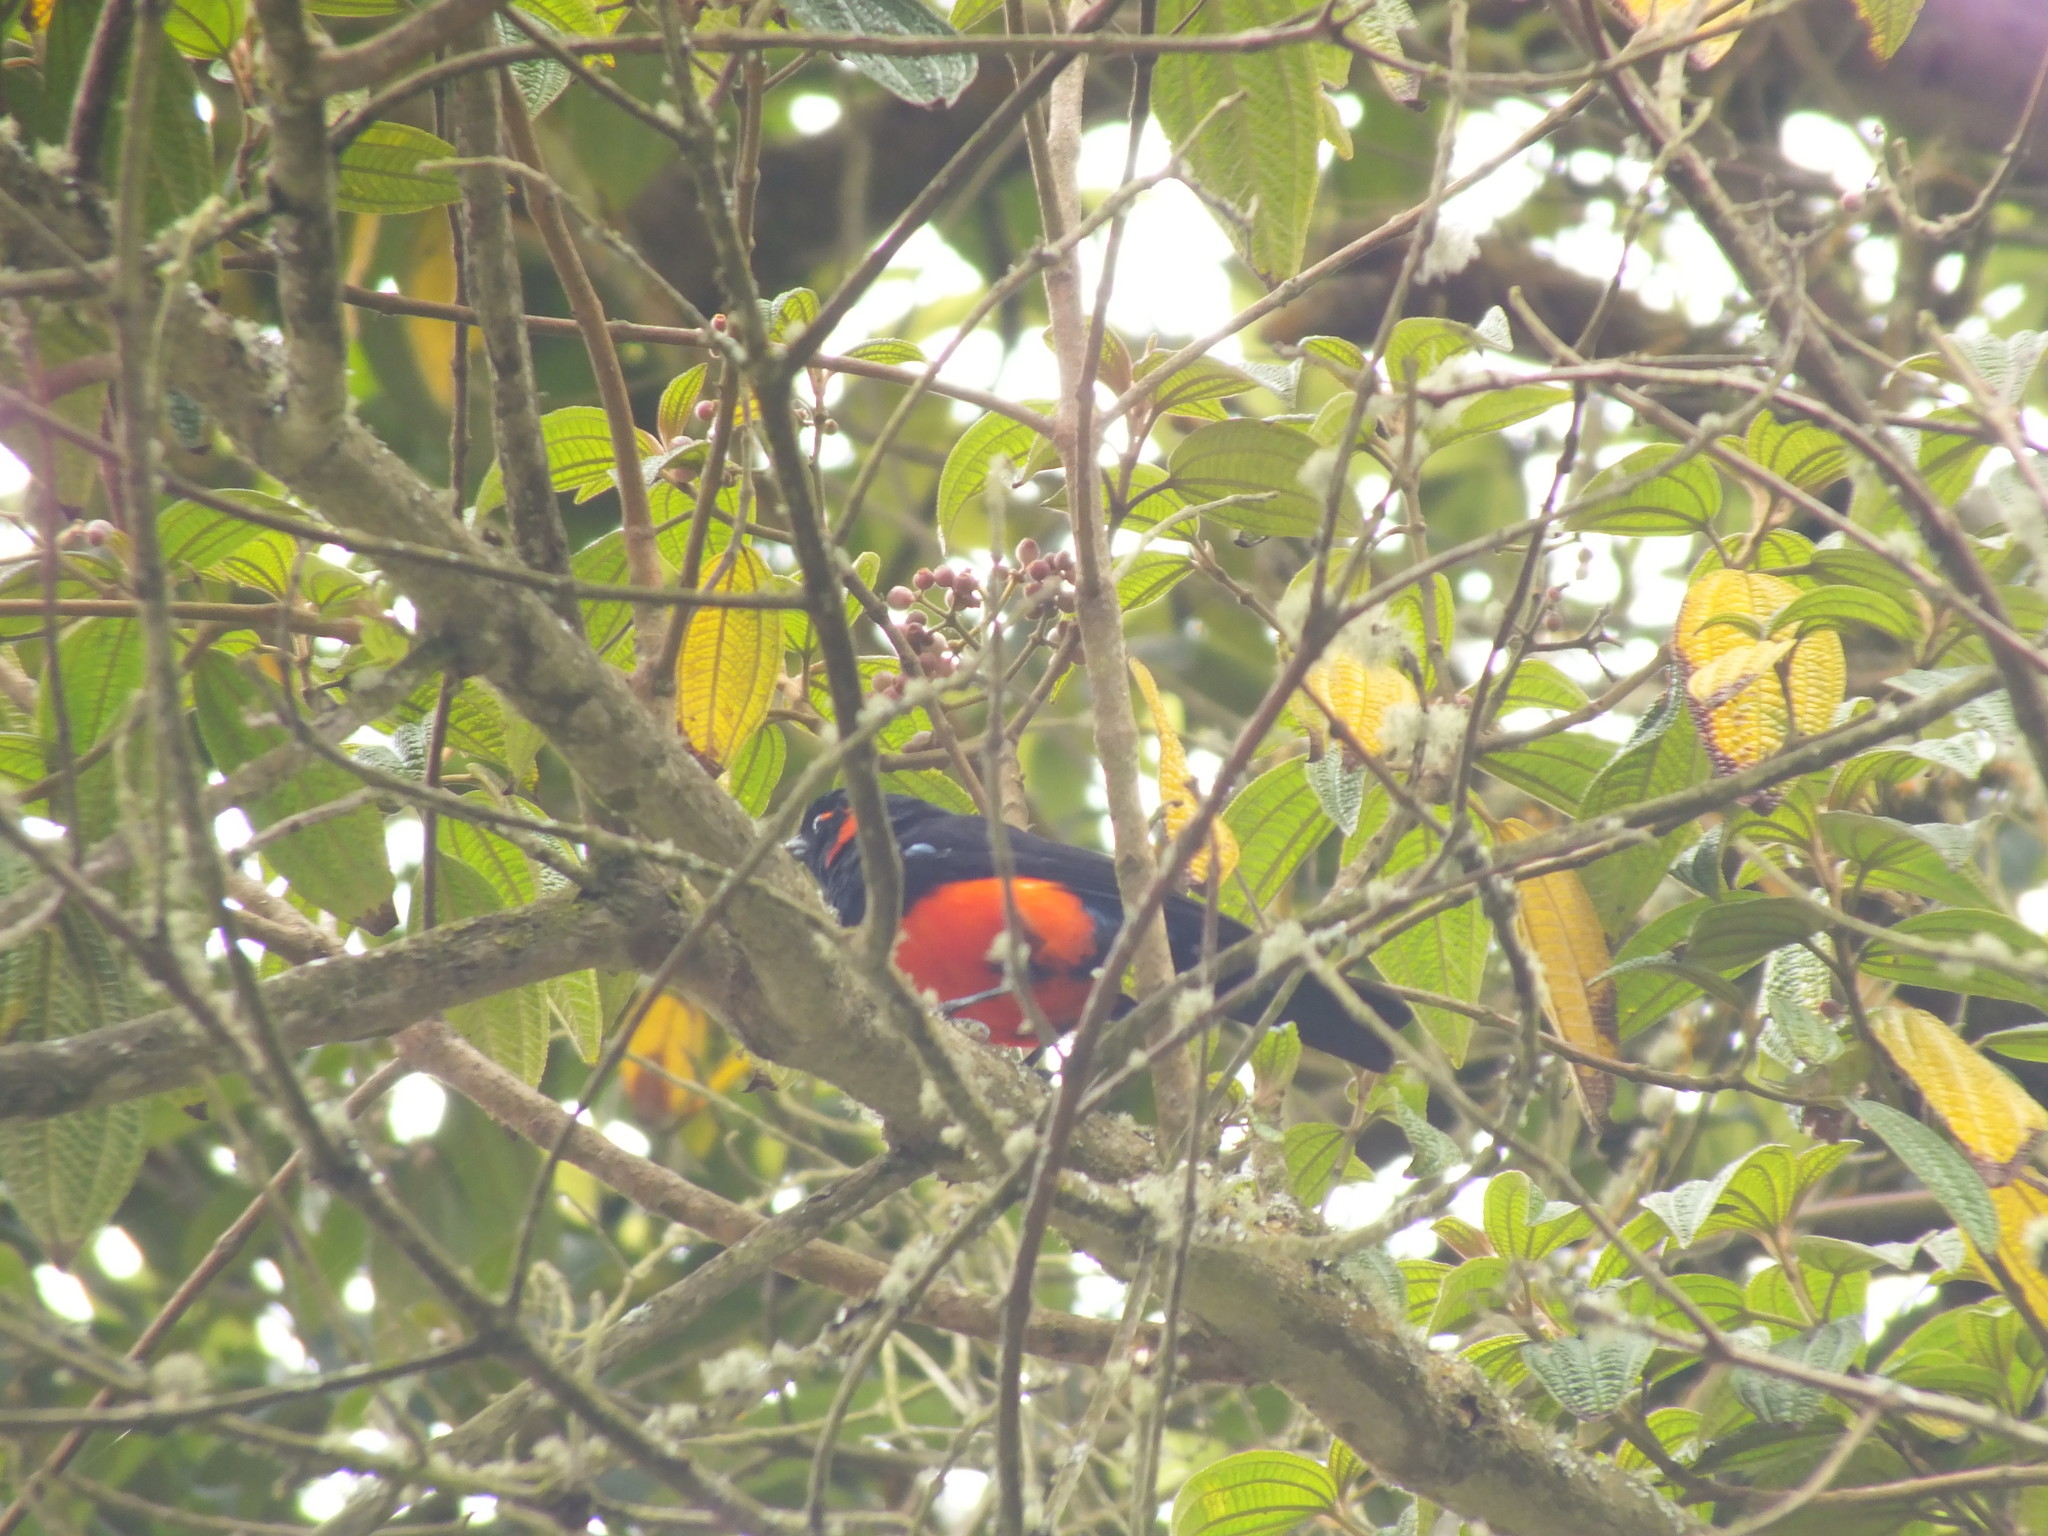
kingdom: Animalia
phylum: Chordata
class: Aves
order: Passeriformes
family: Thraupidae
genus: Anisognathus
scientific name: Anisognathus igniventris
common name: Scarlet-bellied mountain tanager
